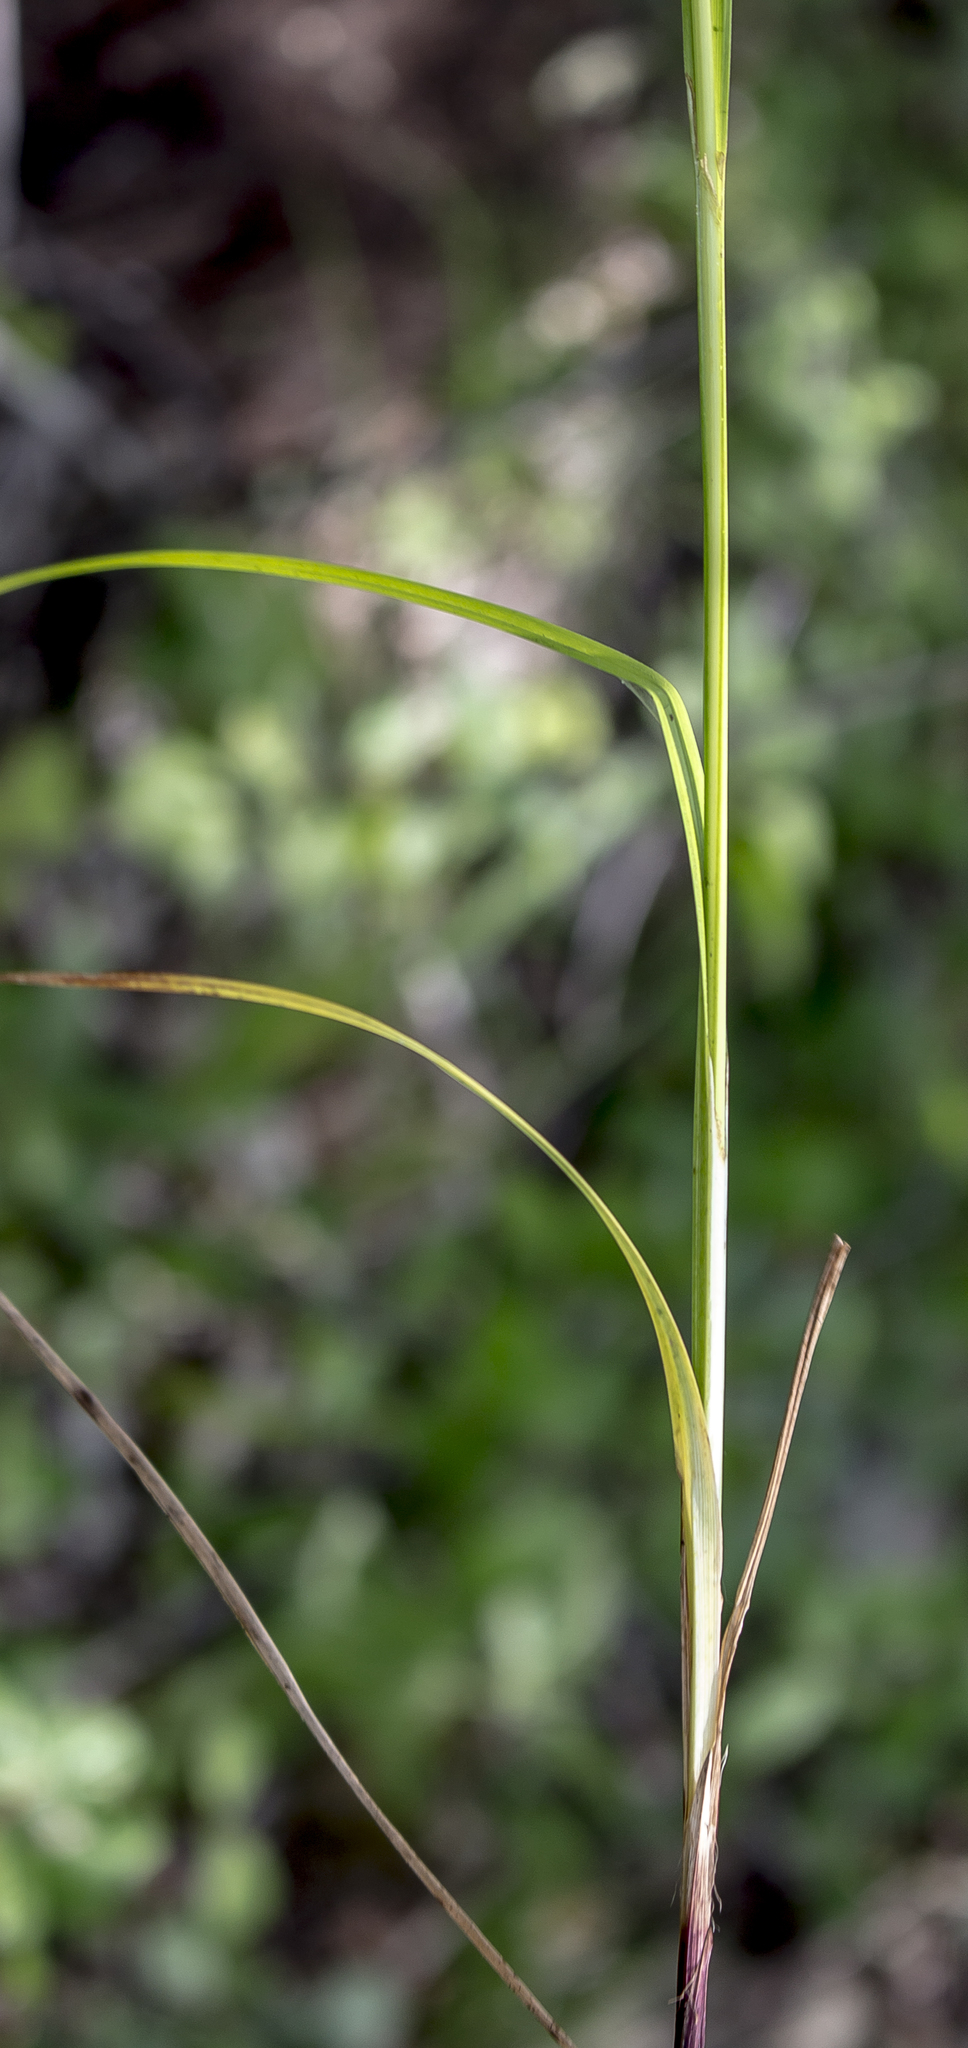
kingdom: Plantae
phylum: Tracheophyta
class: Liliopsida
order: Poales
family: Cyperaceae
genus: Carex
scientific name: Carex gracillima
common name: Graceful sedge
